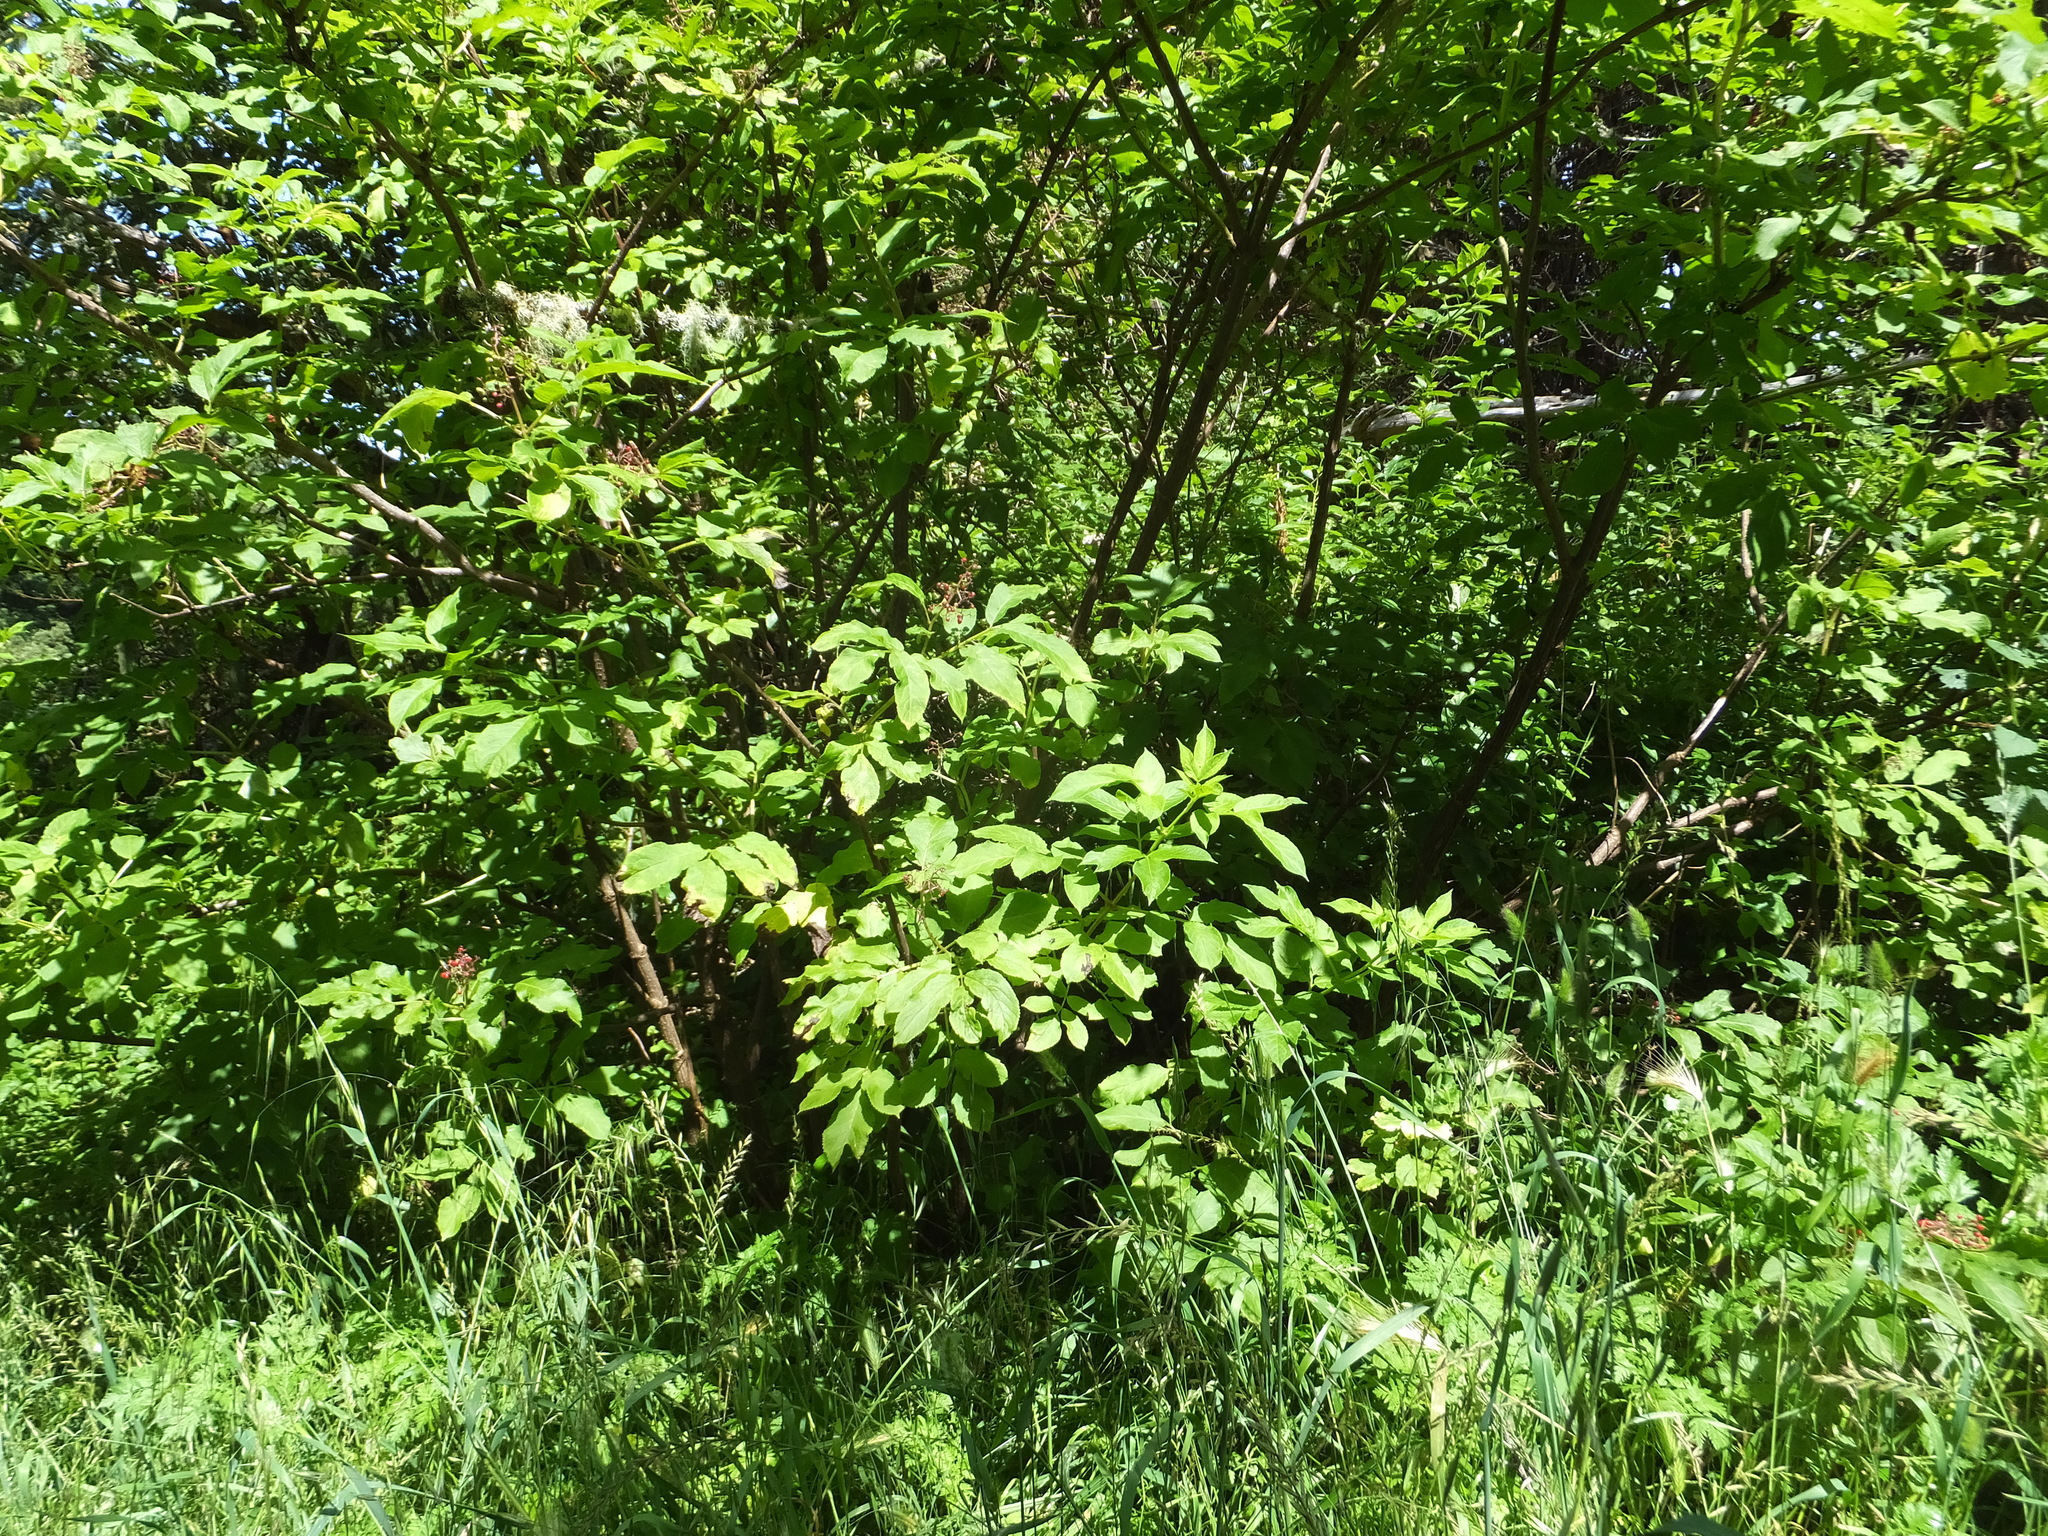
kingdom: Plantae
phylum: Tracheophyta
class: Magnoliopsida
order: Dipsacales
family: Viburnaceae
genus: Sambucus
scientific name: Sambucus racemosa
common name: Red-berried elder
